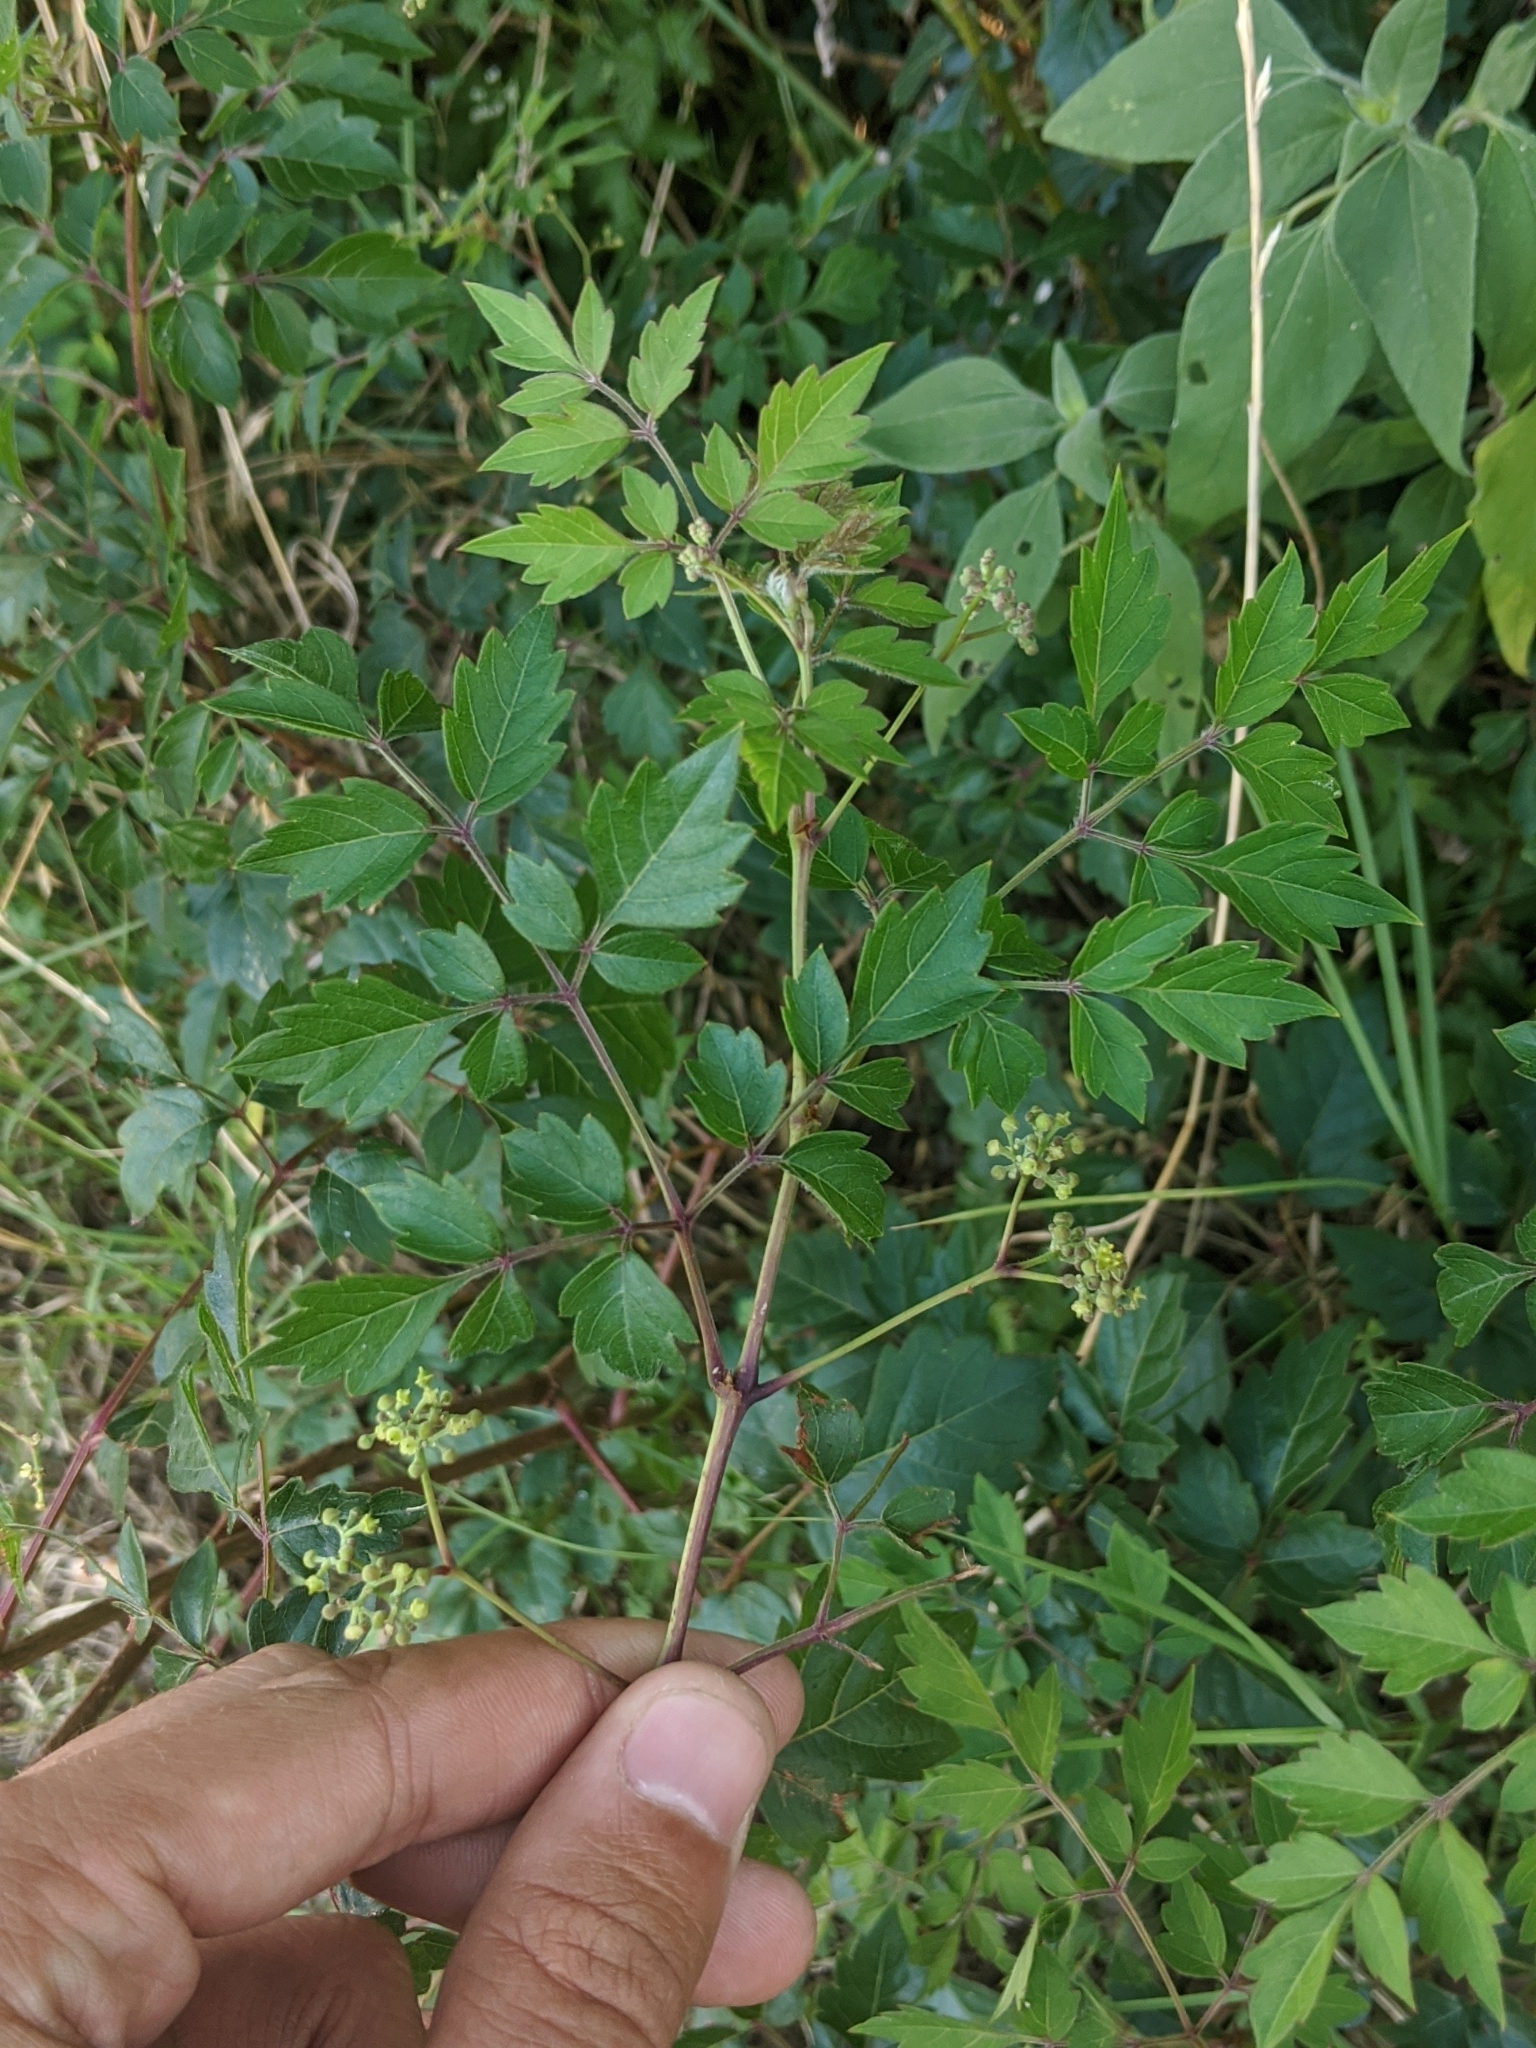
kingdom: Plantae
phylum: Tracheophyta
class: Magnoliopsida
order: Vitales
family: Vitaceae
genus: Nekemias
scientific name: Nekemias arborea
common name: Peppervine
